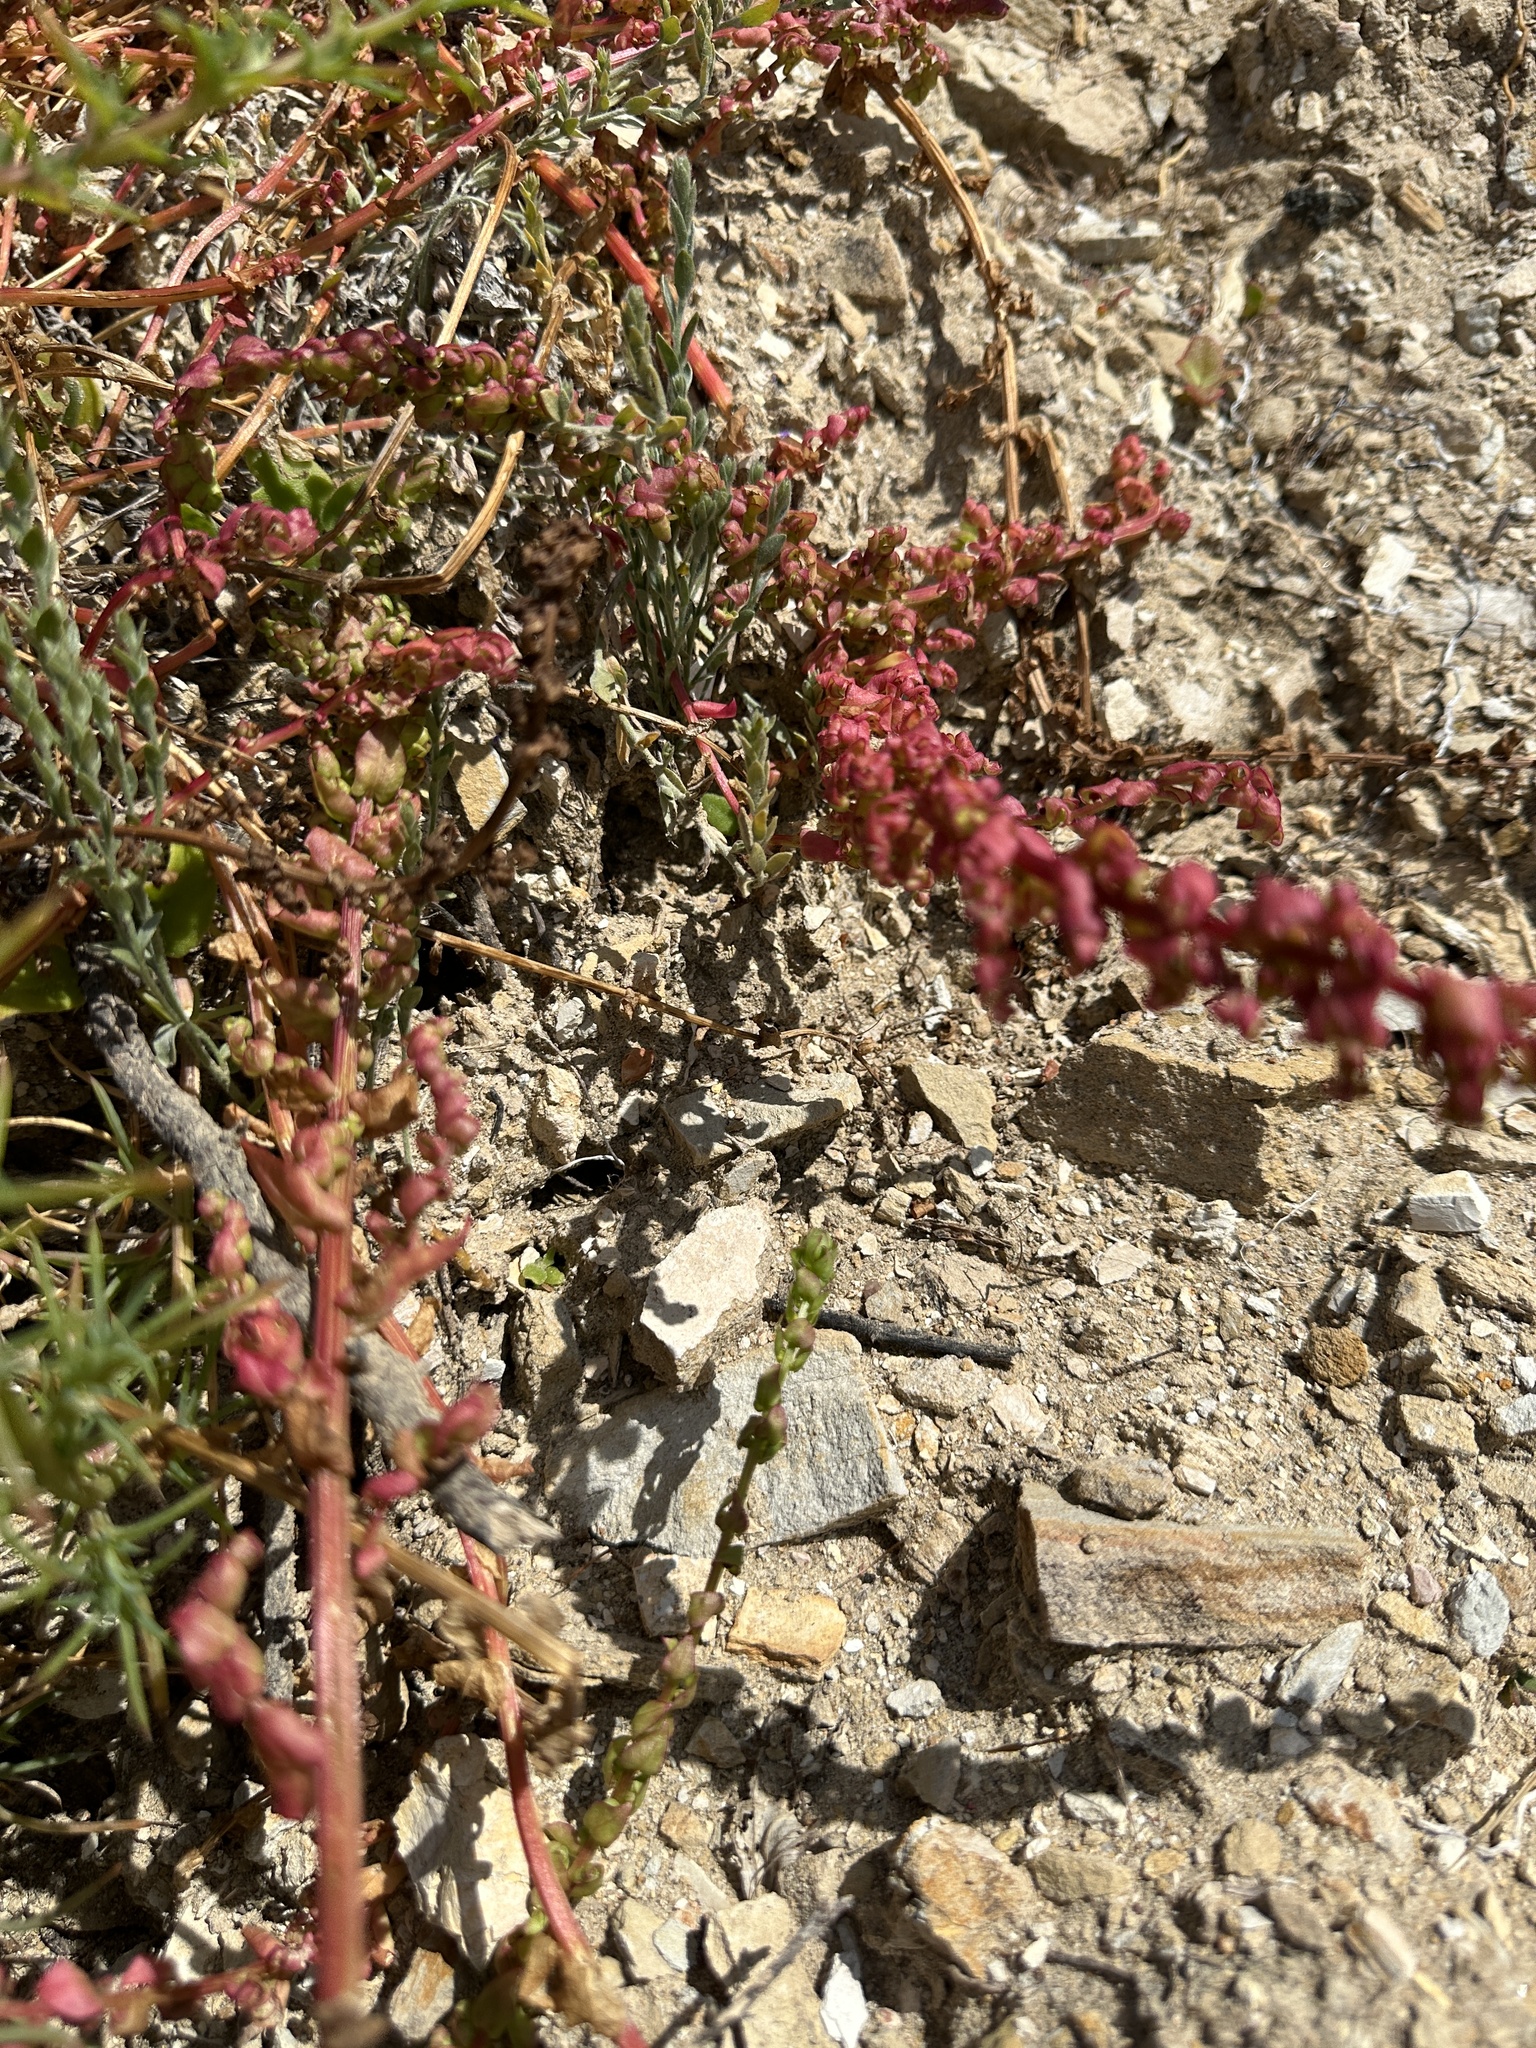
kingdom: Plantae
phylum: Tracheophyta
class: Magnoliopsida
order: Caryophyllales
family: Amaranthaceae
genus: Aphanisma
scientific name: Aphanisma blitoides
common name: Aphanisma
